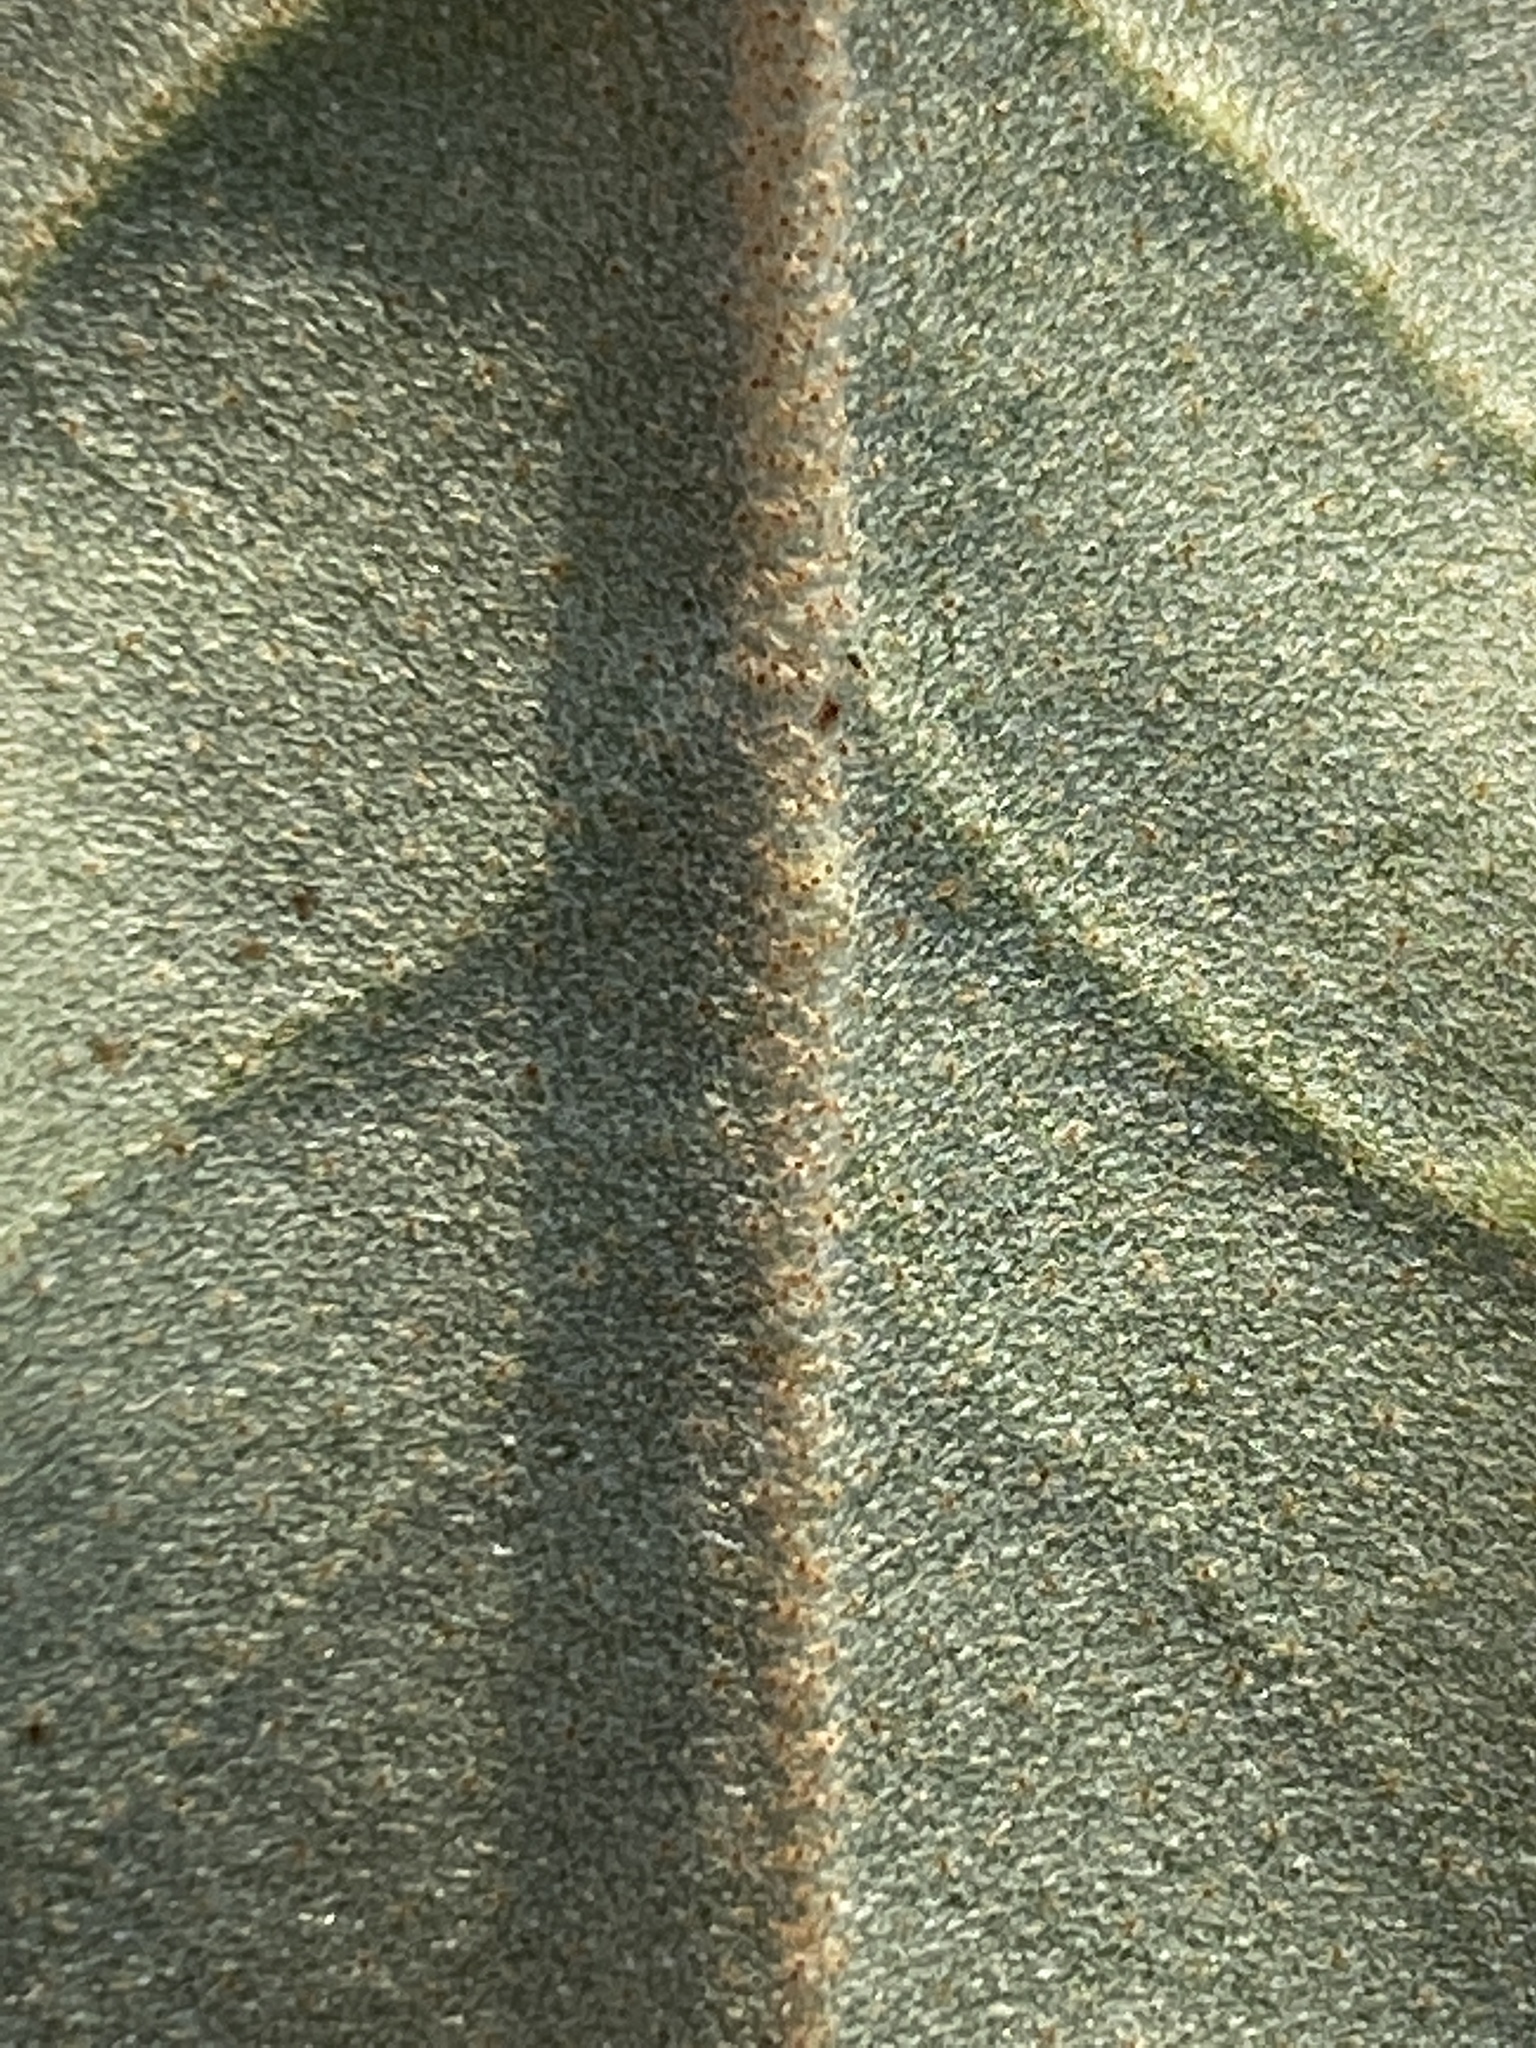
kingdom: Plantae
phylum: Tracheophyta
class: Magnoliopsida
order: Malpighiales
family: Euphorbiaceae
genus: Croton
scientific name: Croton punctatus
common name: Beach-tea
